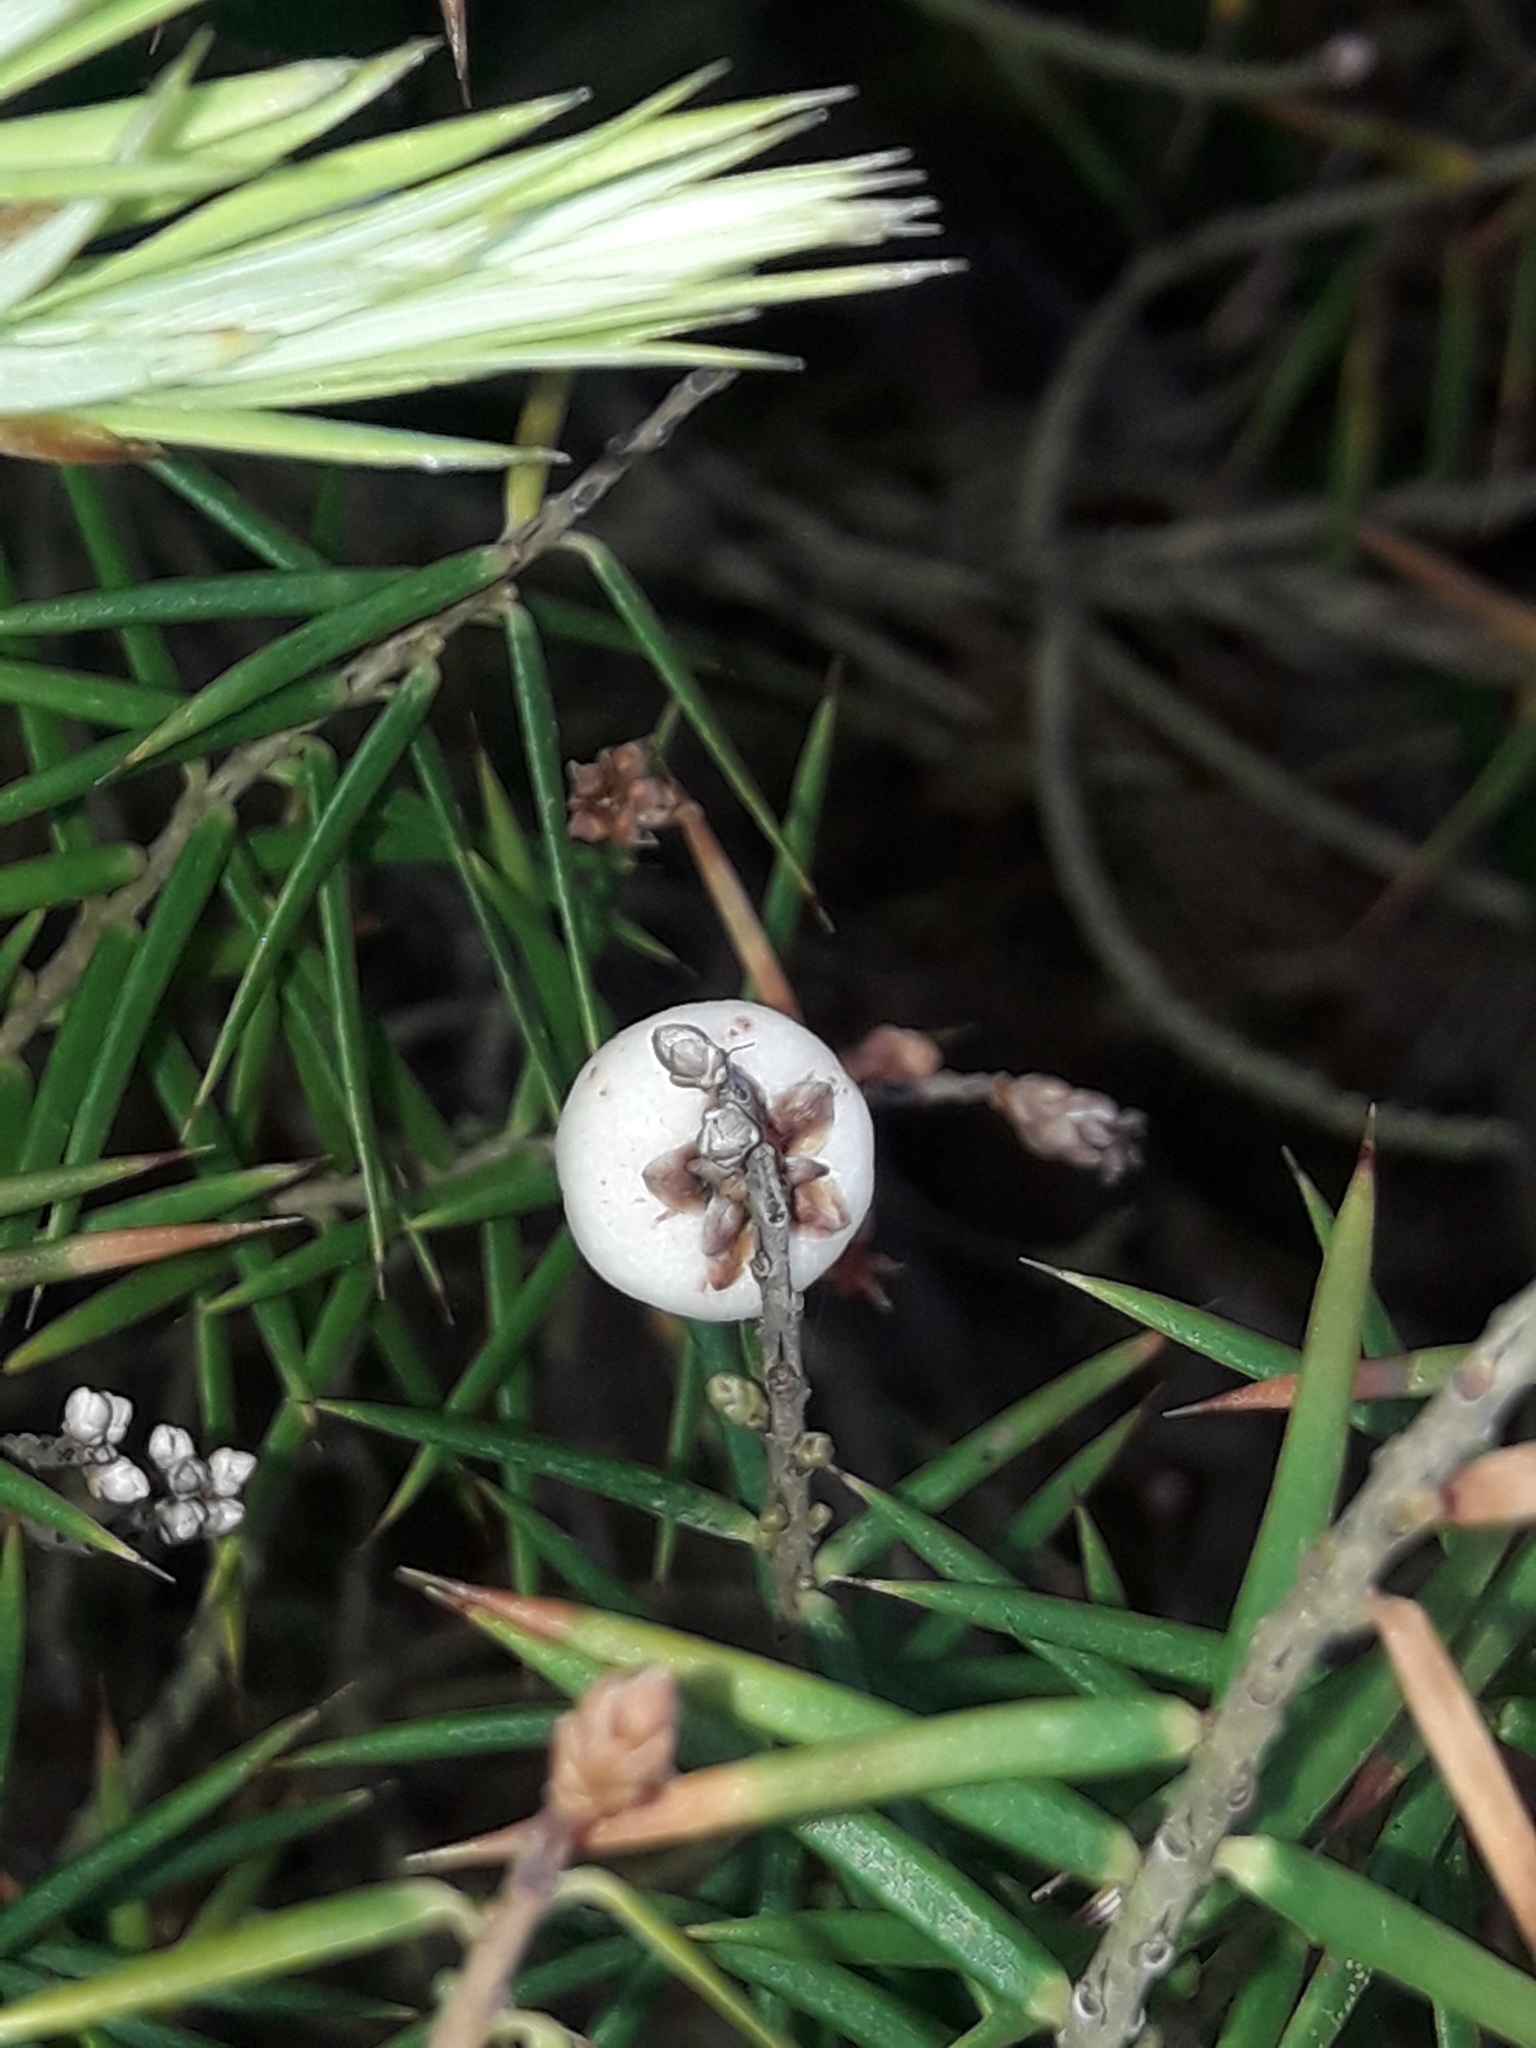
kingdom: Plantae
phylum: Tracheophyta
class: Magnoliopsida
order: Ericales
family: Ericaceae
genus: Leptecophylla
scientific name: Leptecophylla juniperina
